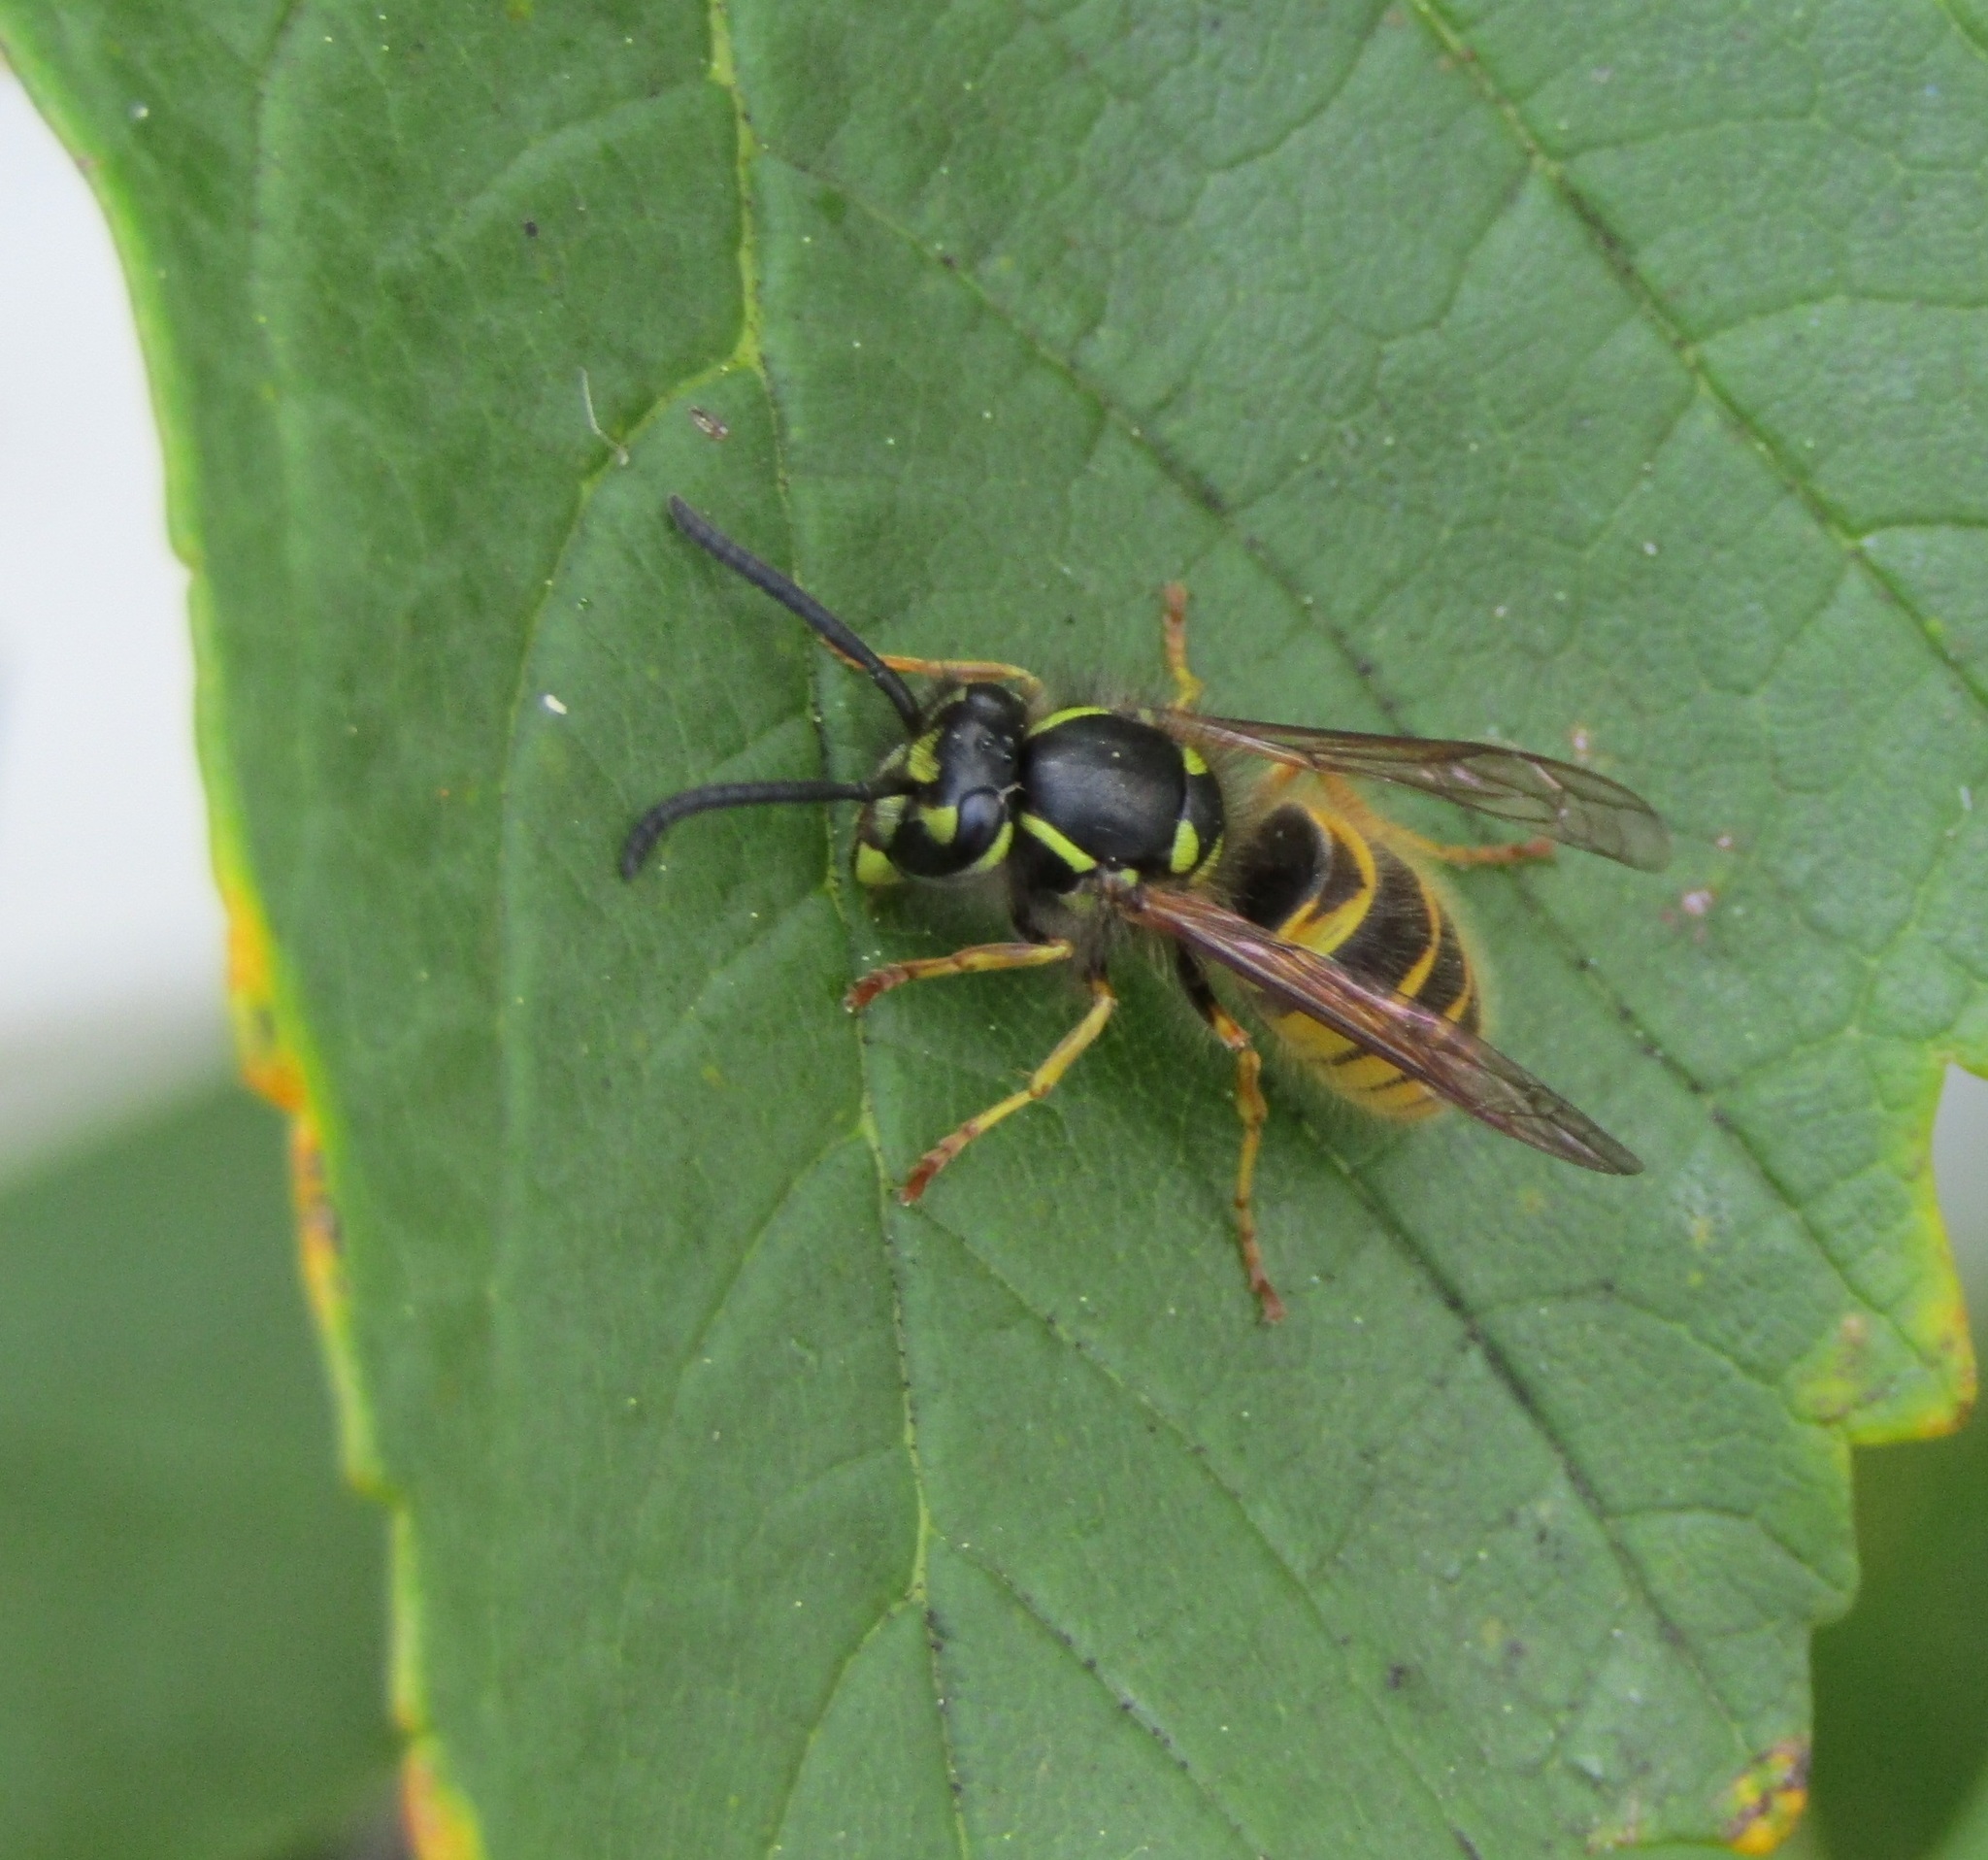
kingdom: Animalia
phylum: Arthropoda
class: Insecta
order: Hymenoptera
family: Vespidae
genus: Vespula
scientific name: Vespula vulgaris
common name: Common wasp
